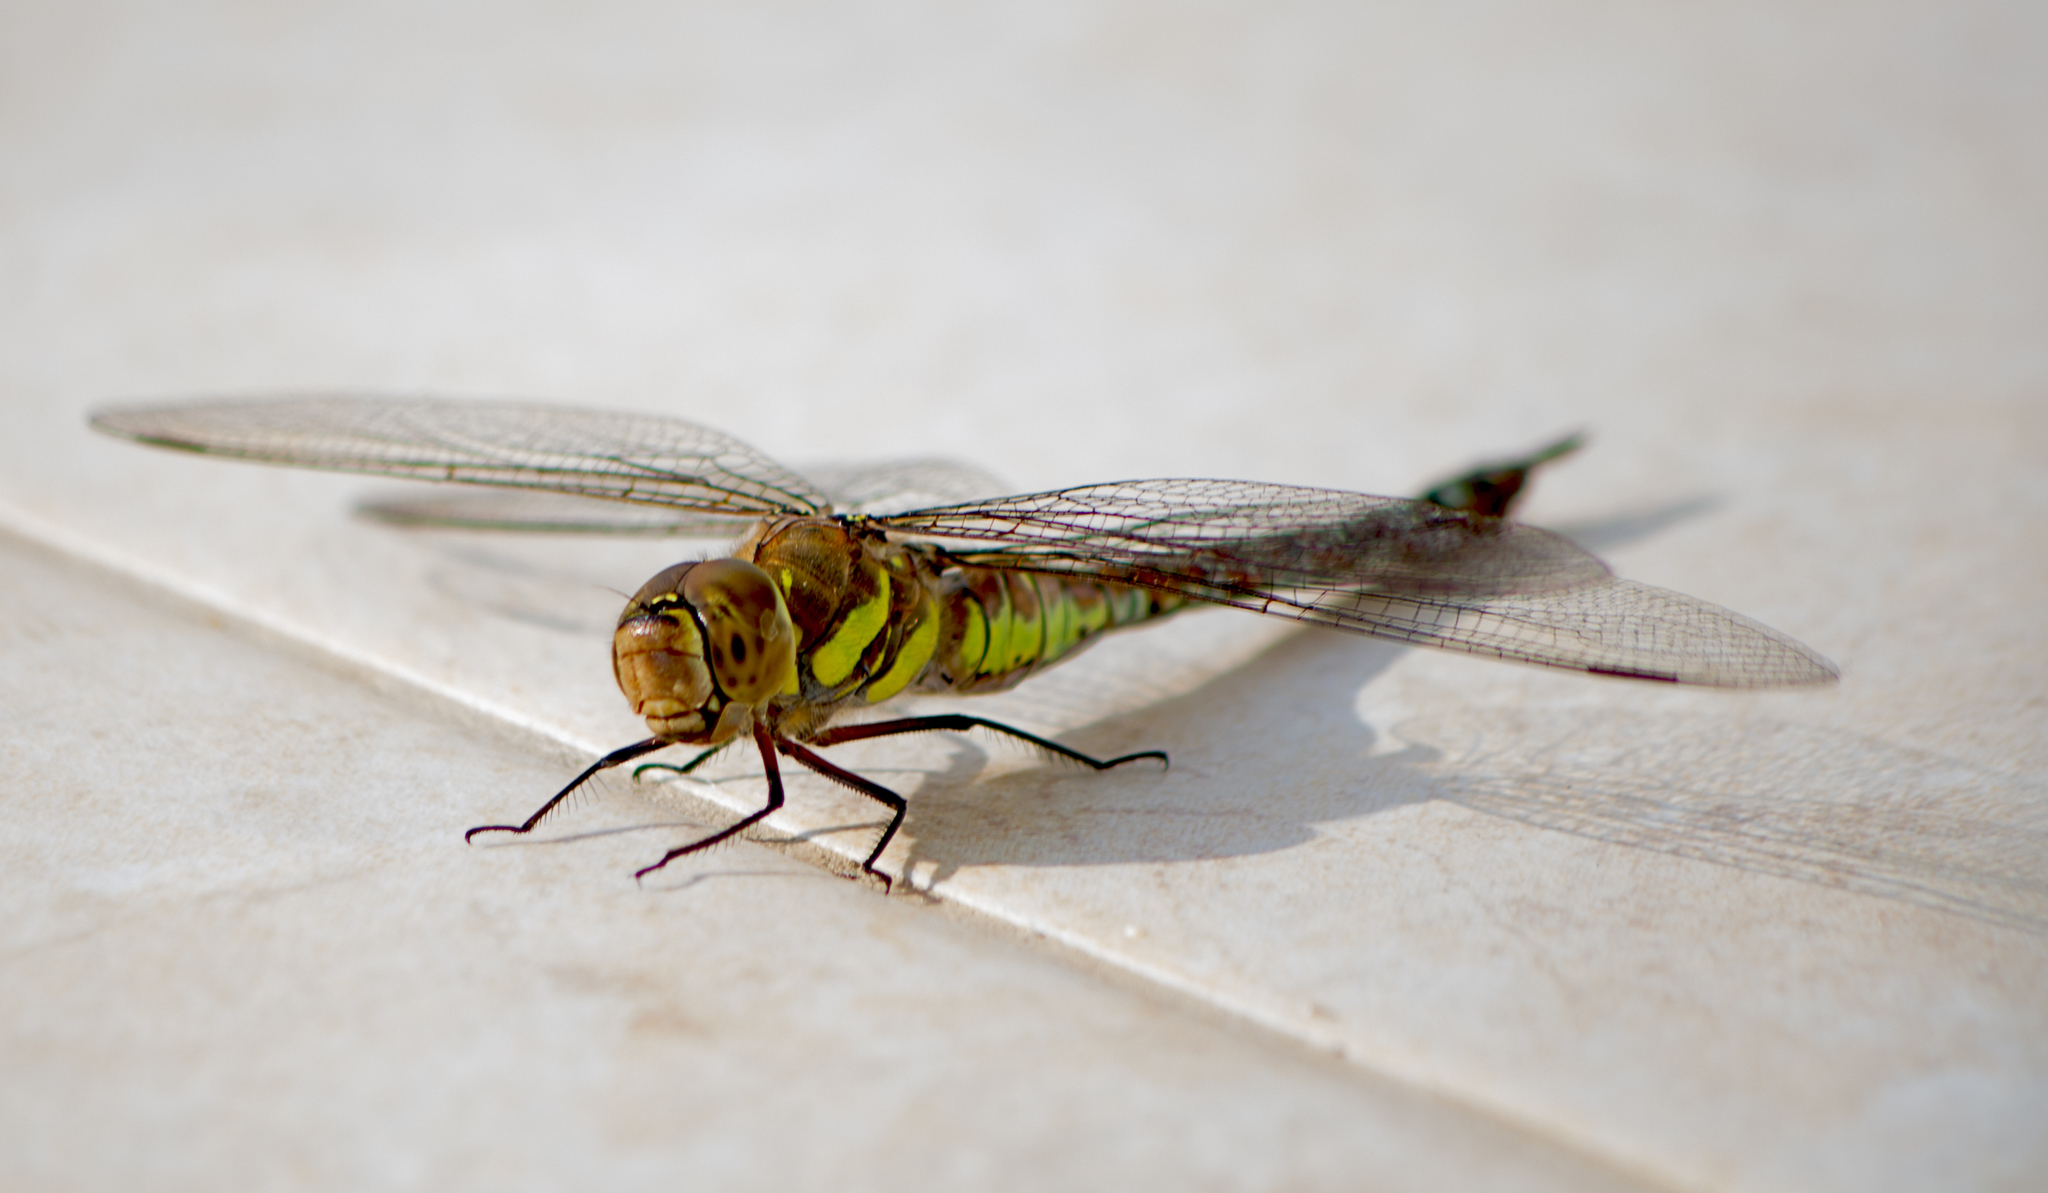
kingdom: Animalia
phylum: Arthropoda
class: Insecta
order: Odonata
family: Aeshnidae
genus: Aeshna
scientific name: Aeshna mixta
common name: Migrant hawker
